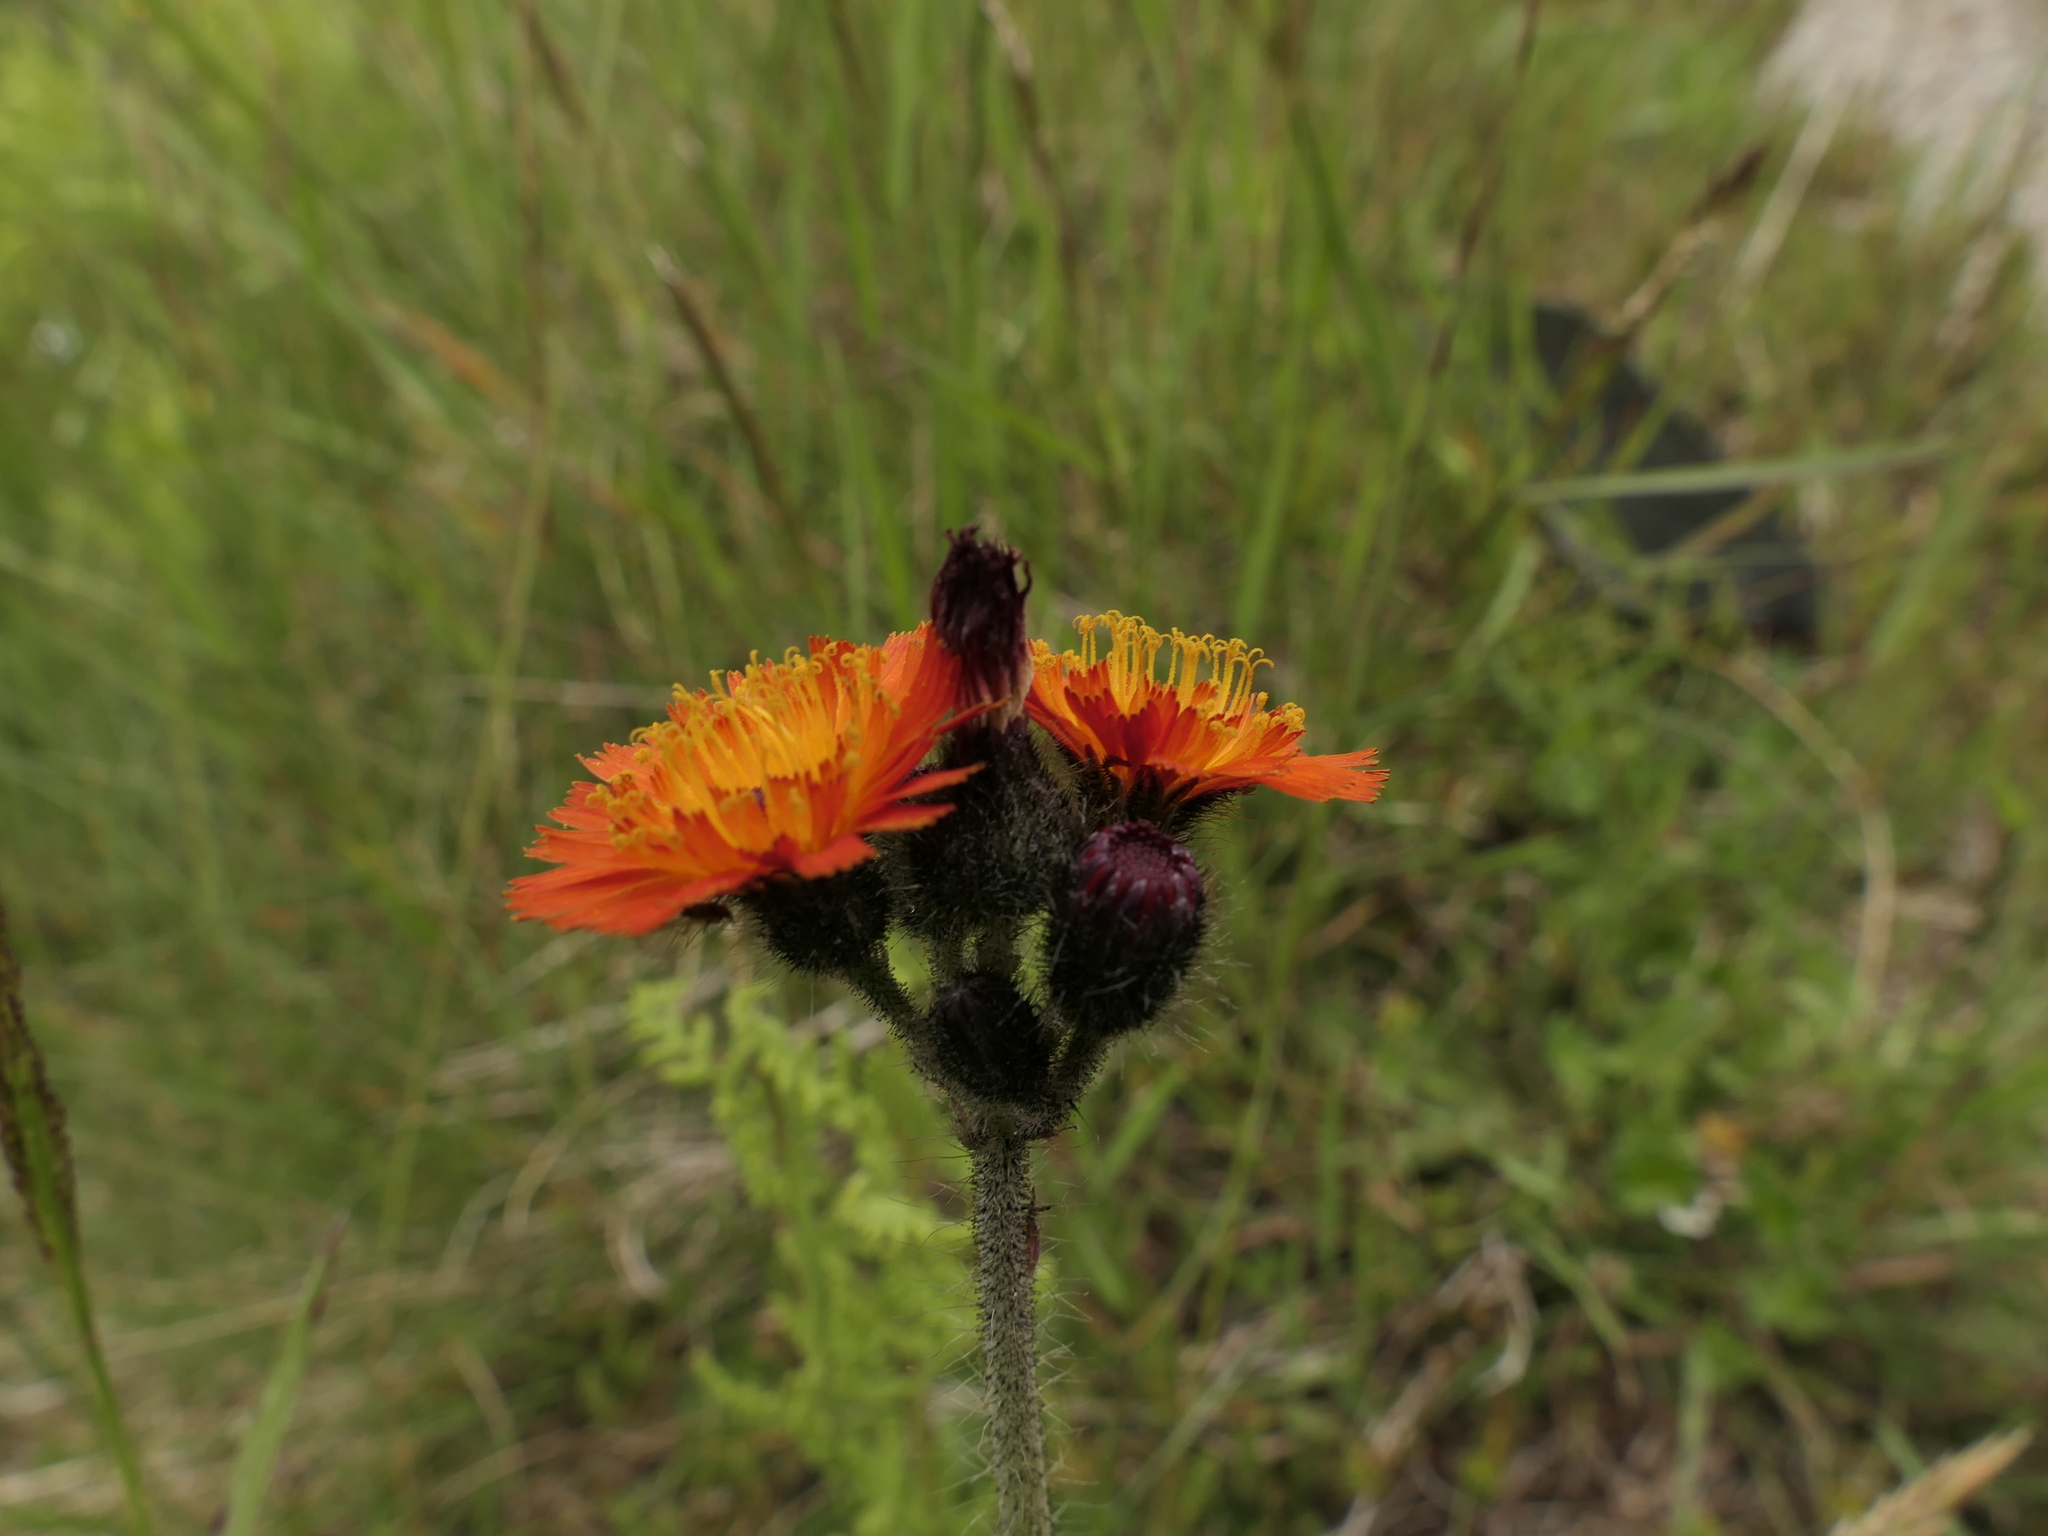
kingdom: Plantae
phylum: Tracheophyta
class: Magnoliopsida
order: Asterales
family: Asteraceae
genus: Pilosella
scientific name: Pilosella aurantiaca
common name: Fox-and-cubs
